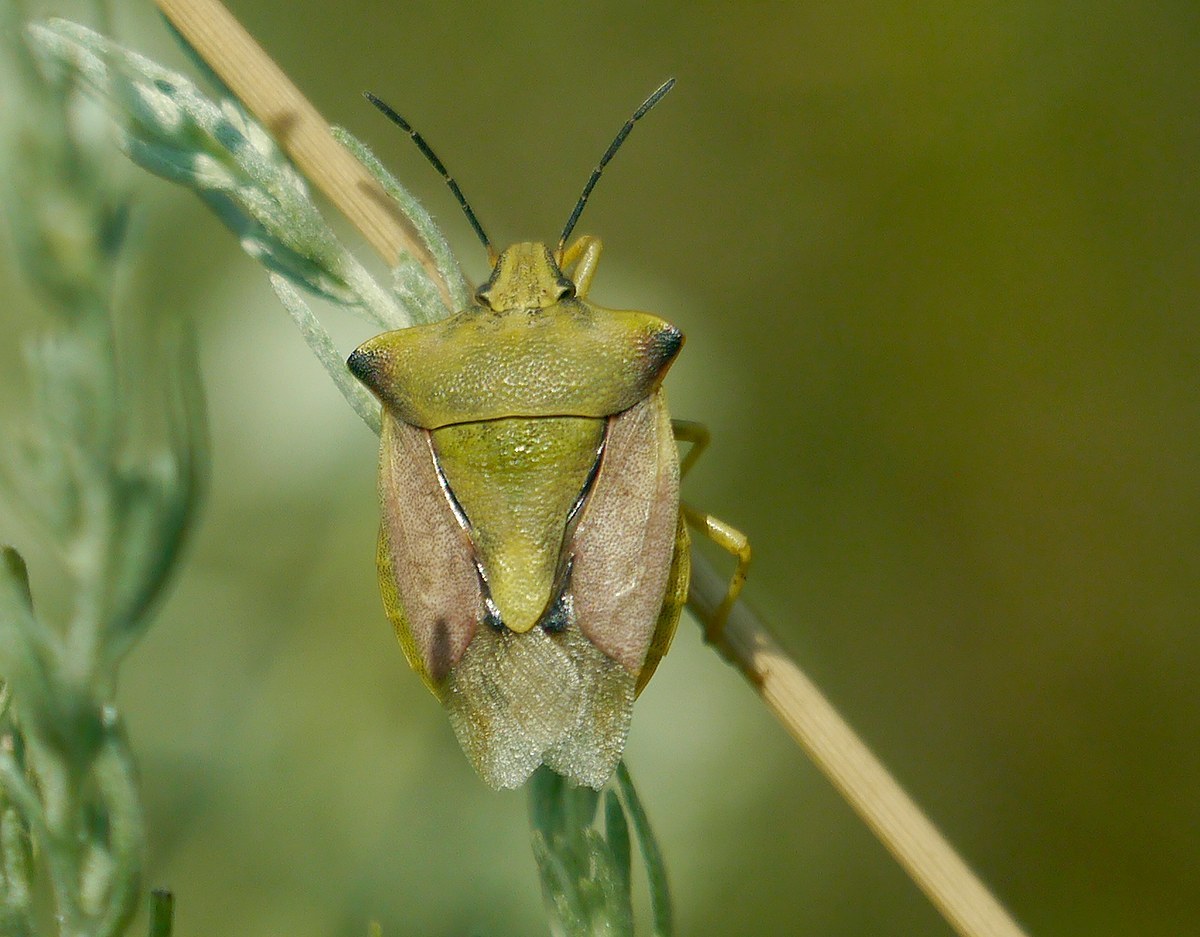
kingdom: Animalia
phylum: Arthropoda
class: Insecta
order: Hemiptera
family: Pentatomidae
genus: Carpocoris
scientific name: Carpocoris fuscispinus
